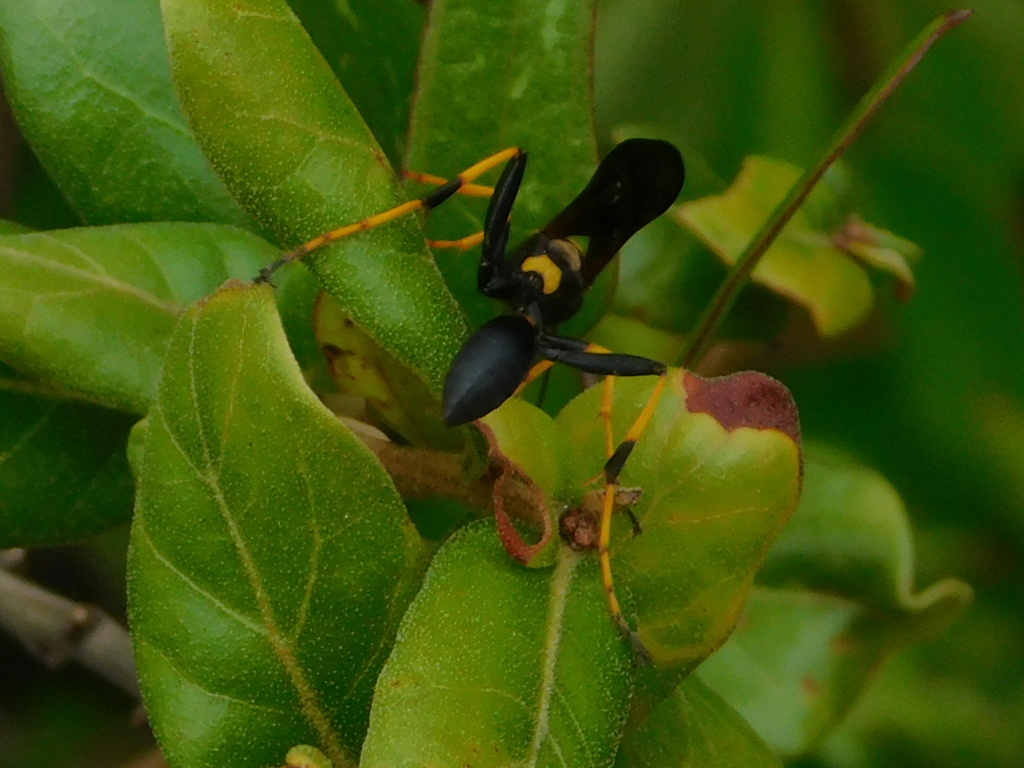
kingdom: Animalia
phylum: Arthropoda
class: Insecta
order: Hymenoptera
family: Sphecidae
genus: Sceliphron
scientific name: Sceliphron caementarium
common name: Mud dauber
